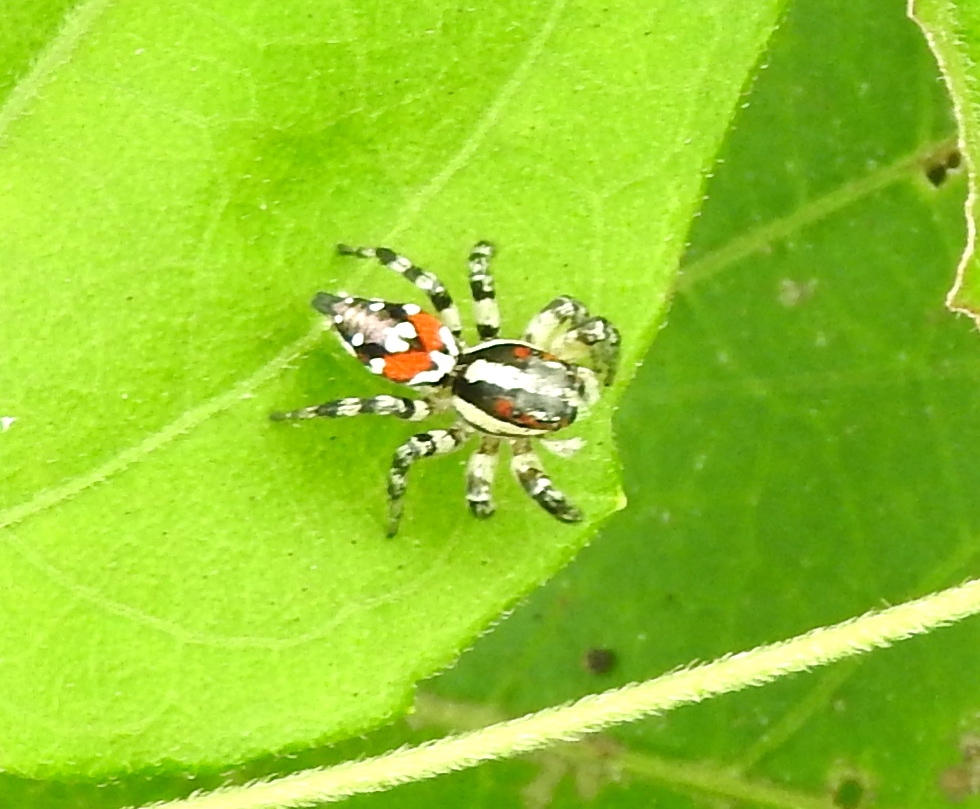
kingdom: Animalia
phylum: Arthropoda
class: Arachnida
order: Araneae
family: Salticidae
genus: Nycerella
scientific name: Nycerella
